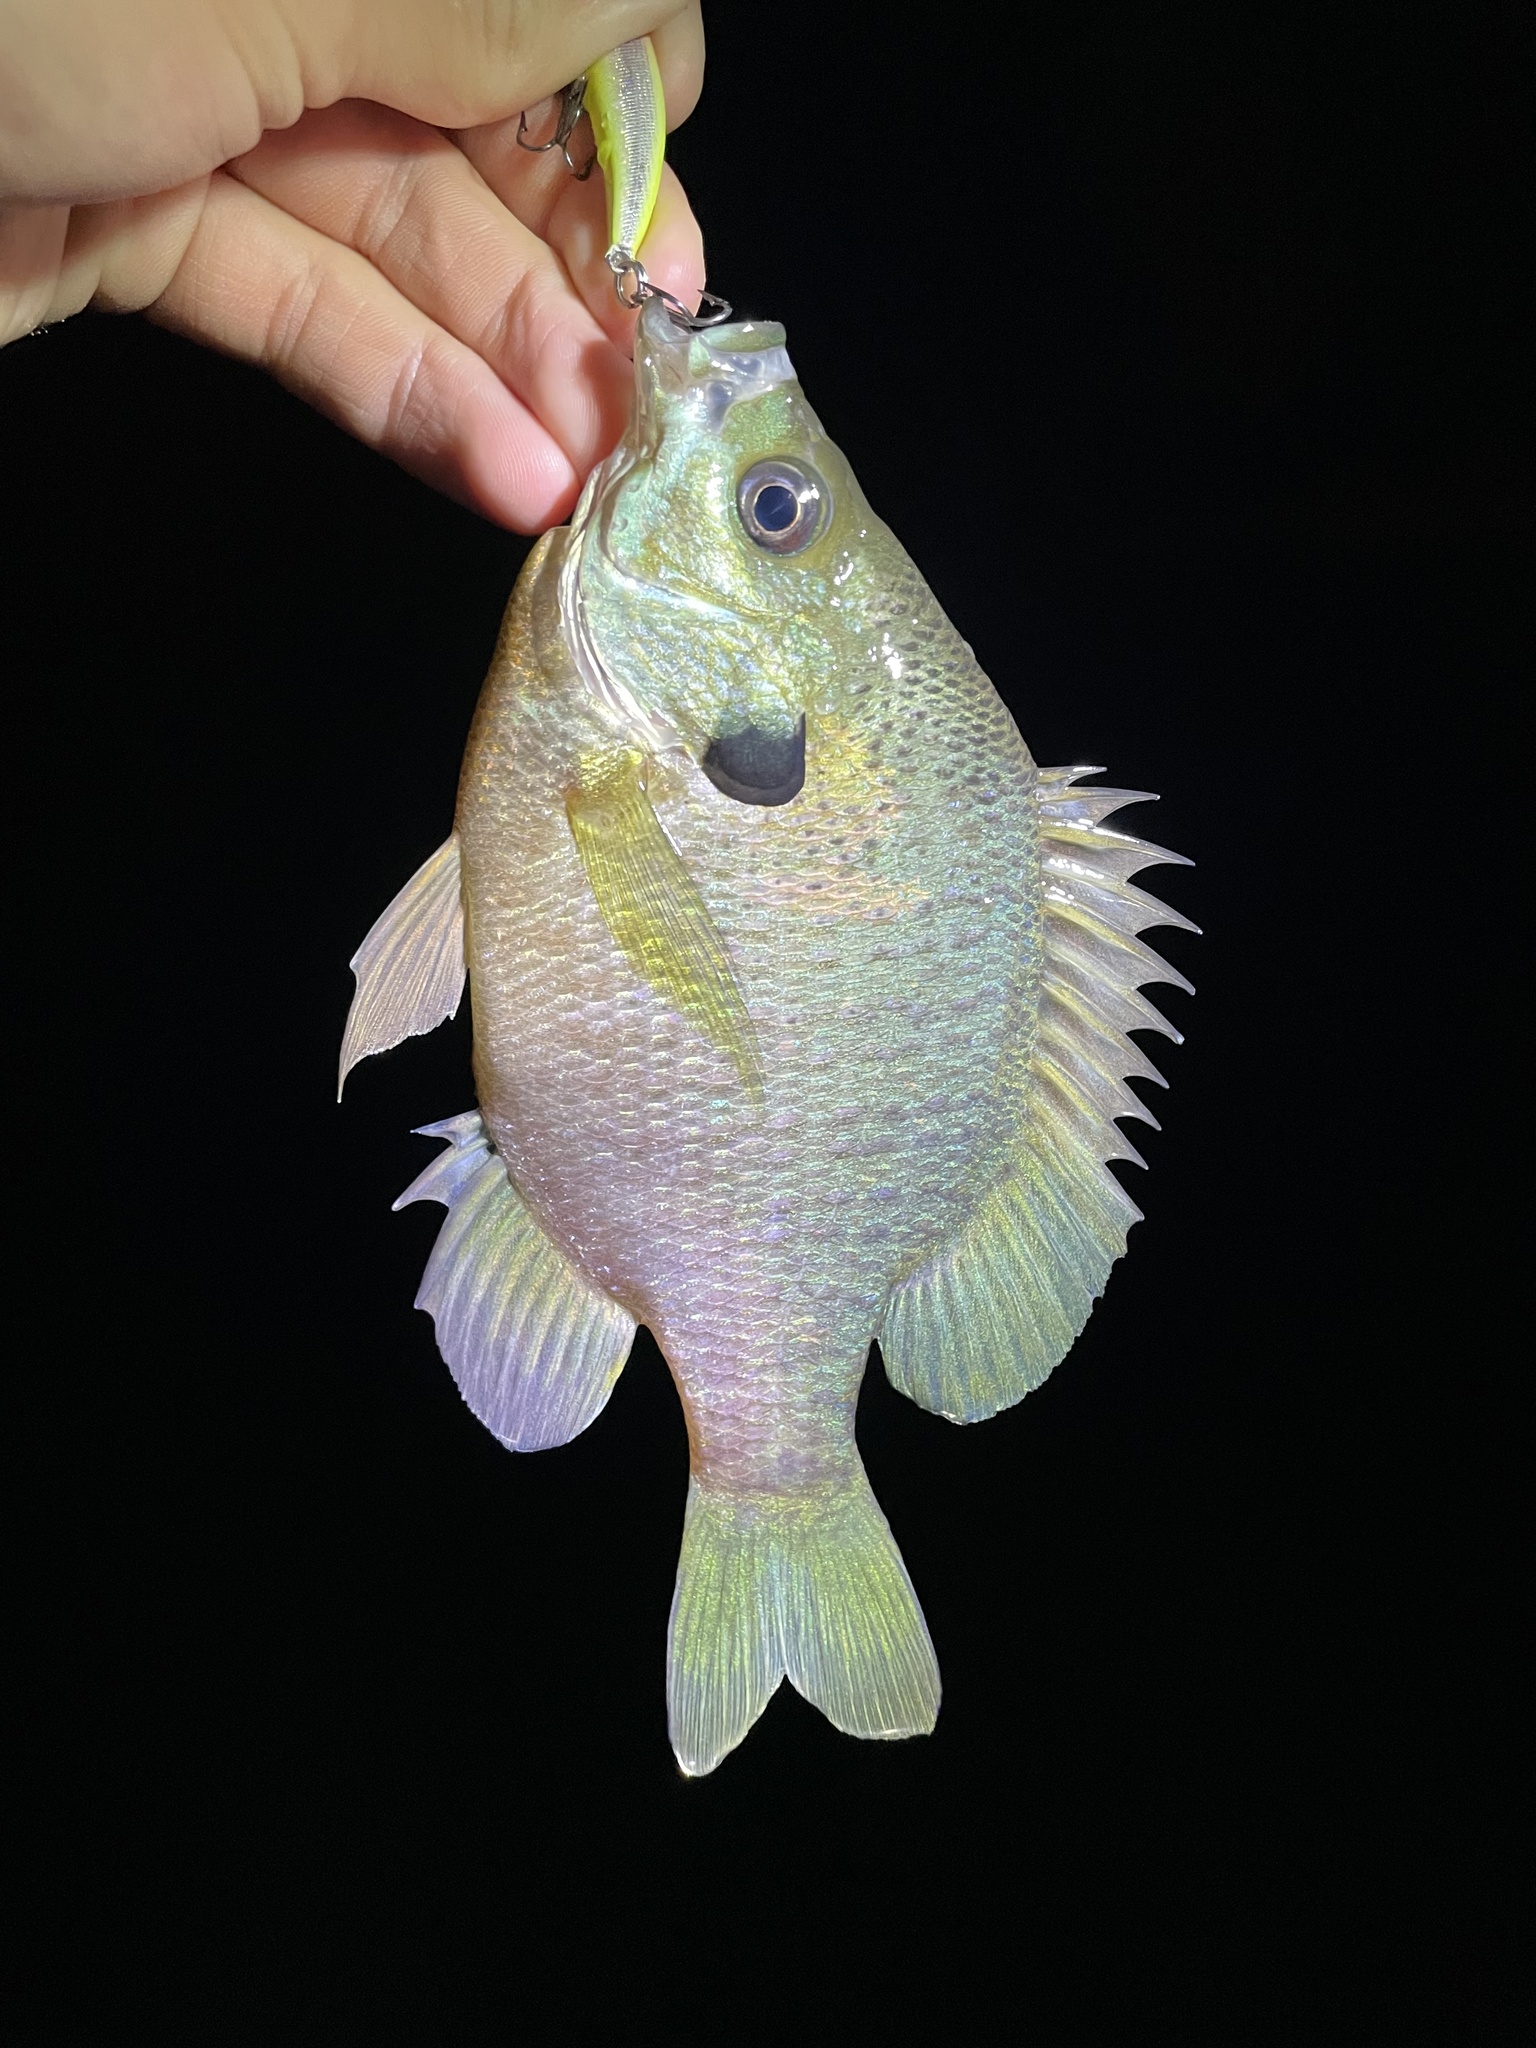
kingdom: Animalia
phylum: Chordata
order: Perciformes
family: Centrarchidae
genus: Lepomis
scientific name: Lepomis macrochirus
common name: Bluegill
